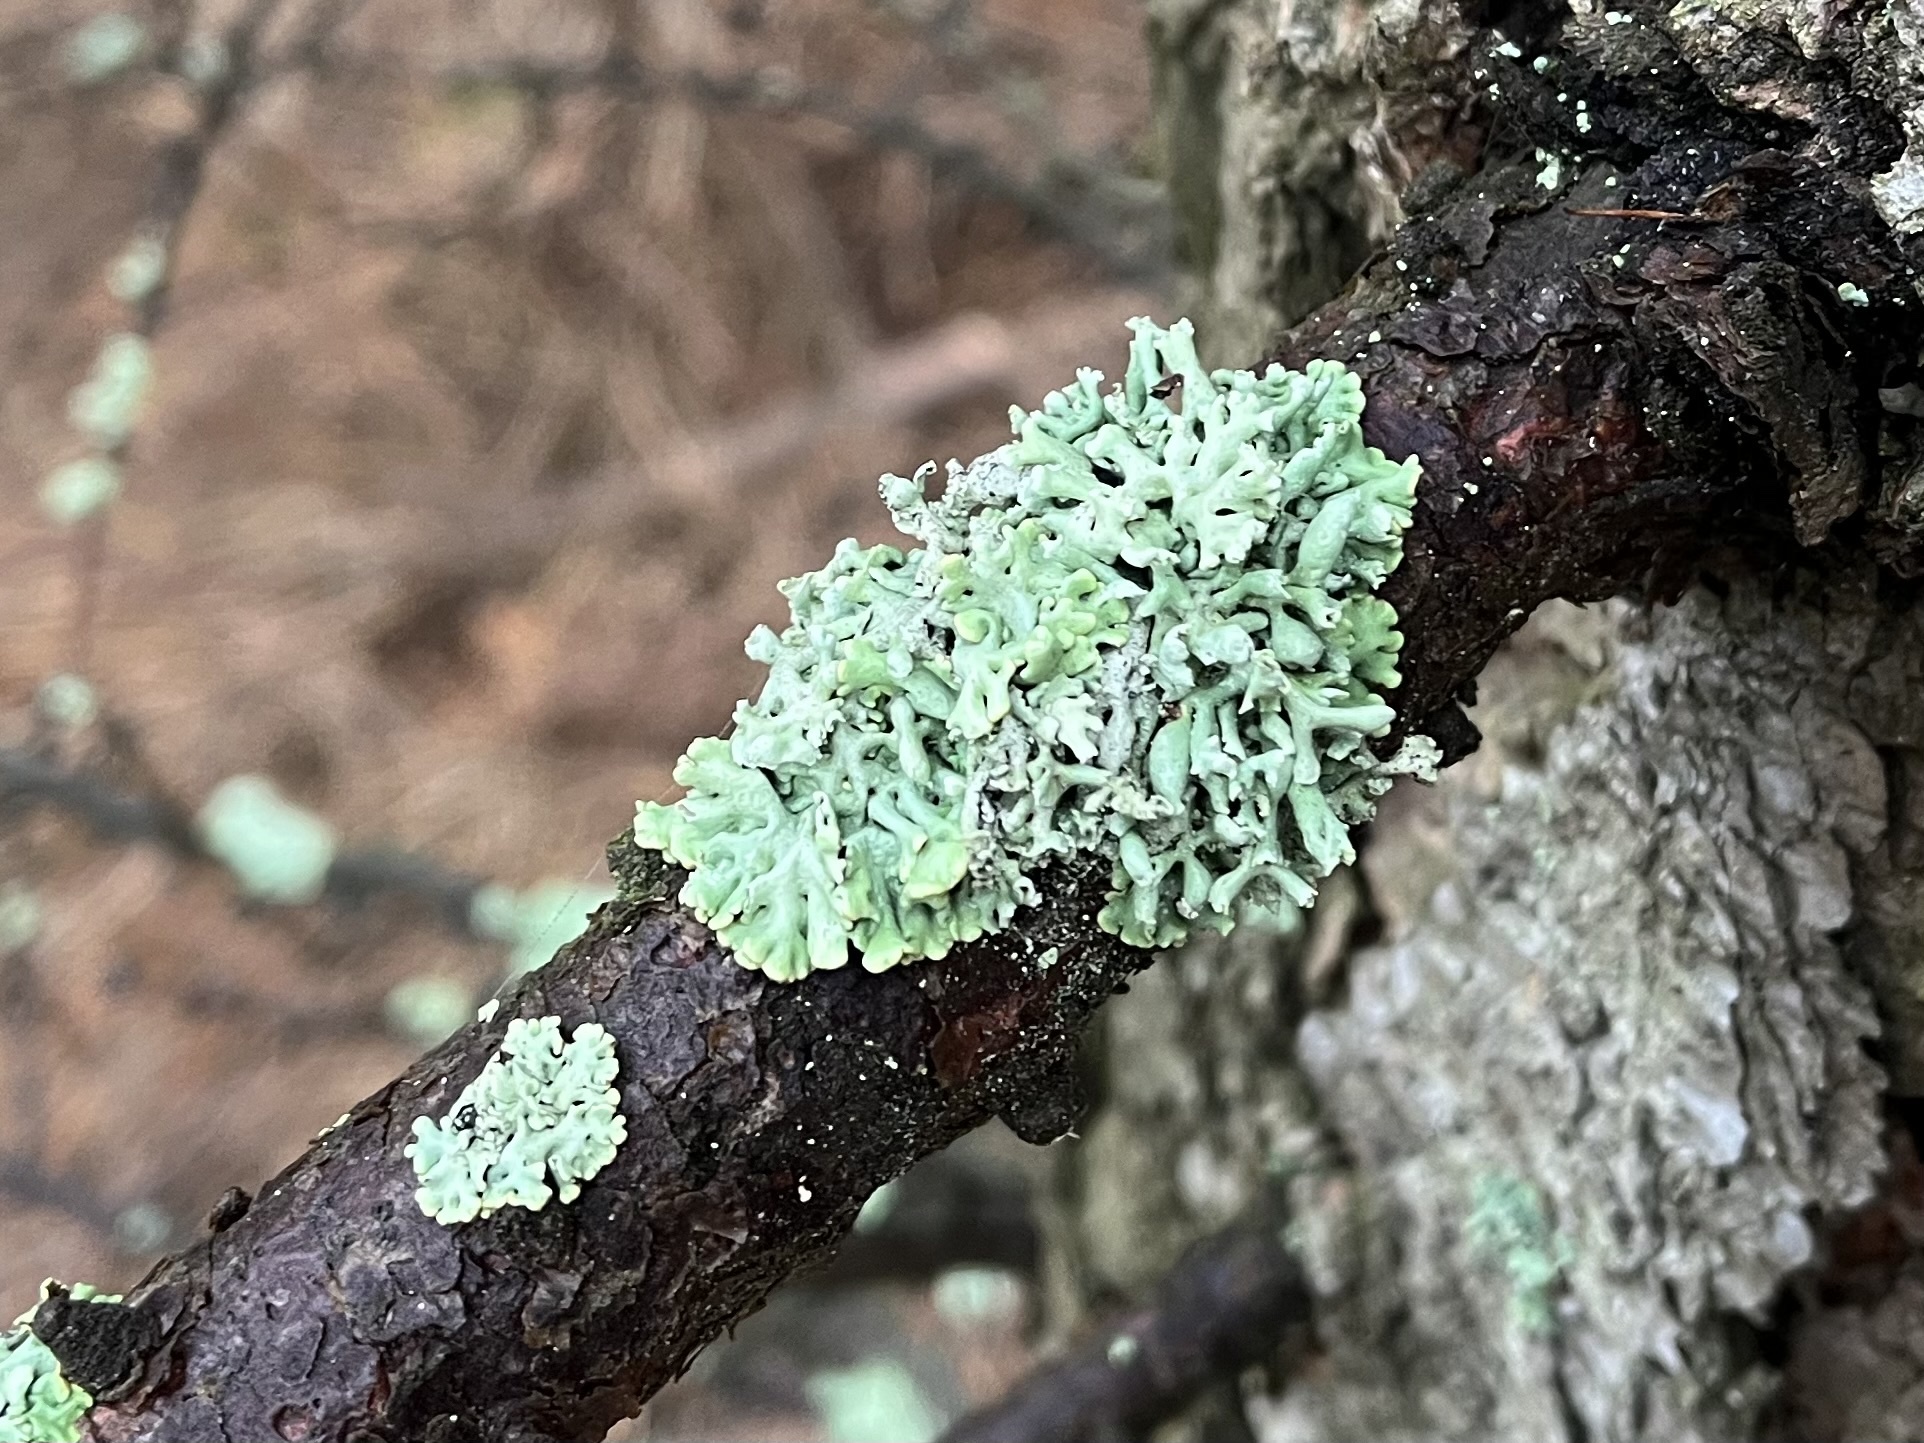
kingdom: Fungi
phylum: Ascomycota
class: Lecanoromycetes
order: Lecanorales
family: Parmeliaceae
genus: Hypogymnia
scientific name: Hypogymnia physodes
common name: Dark crottle
